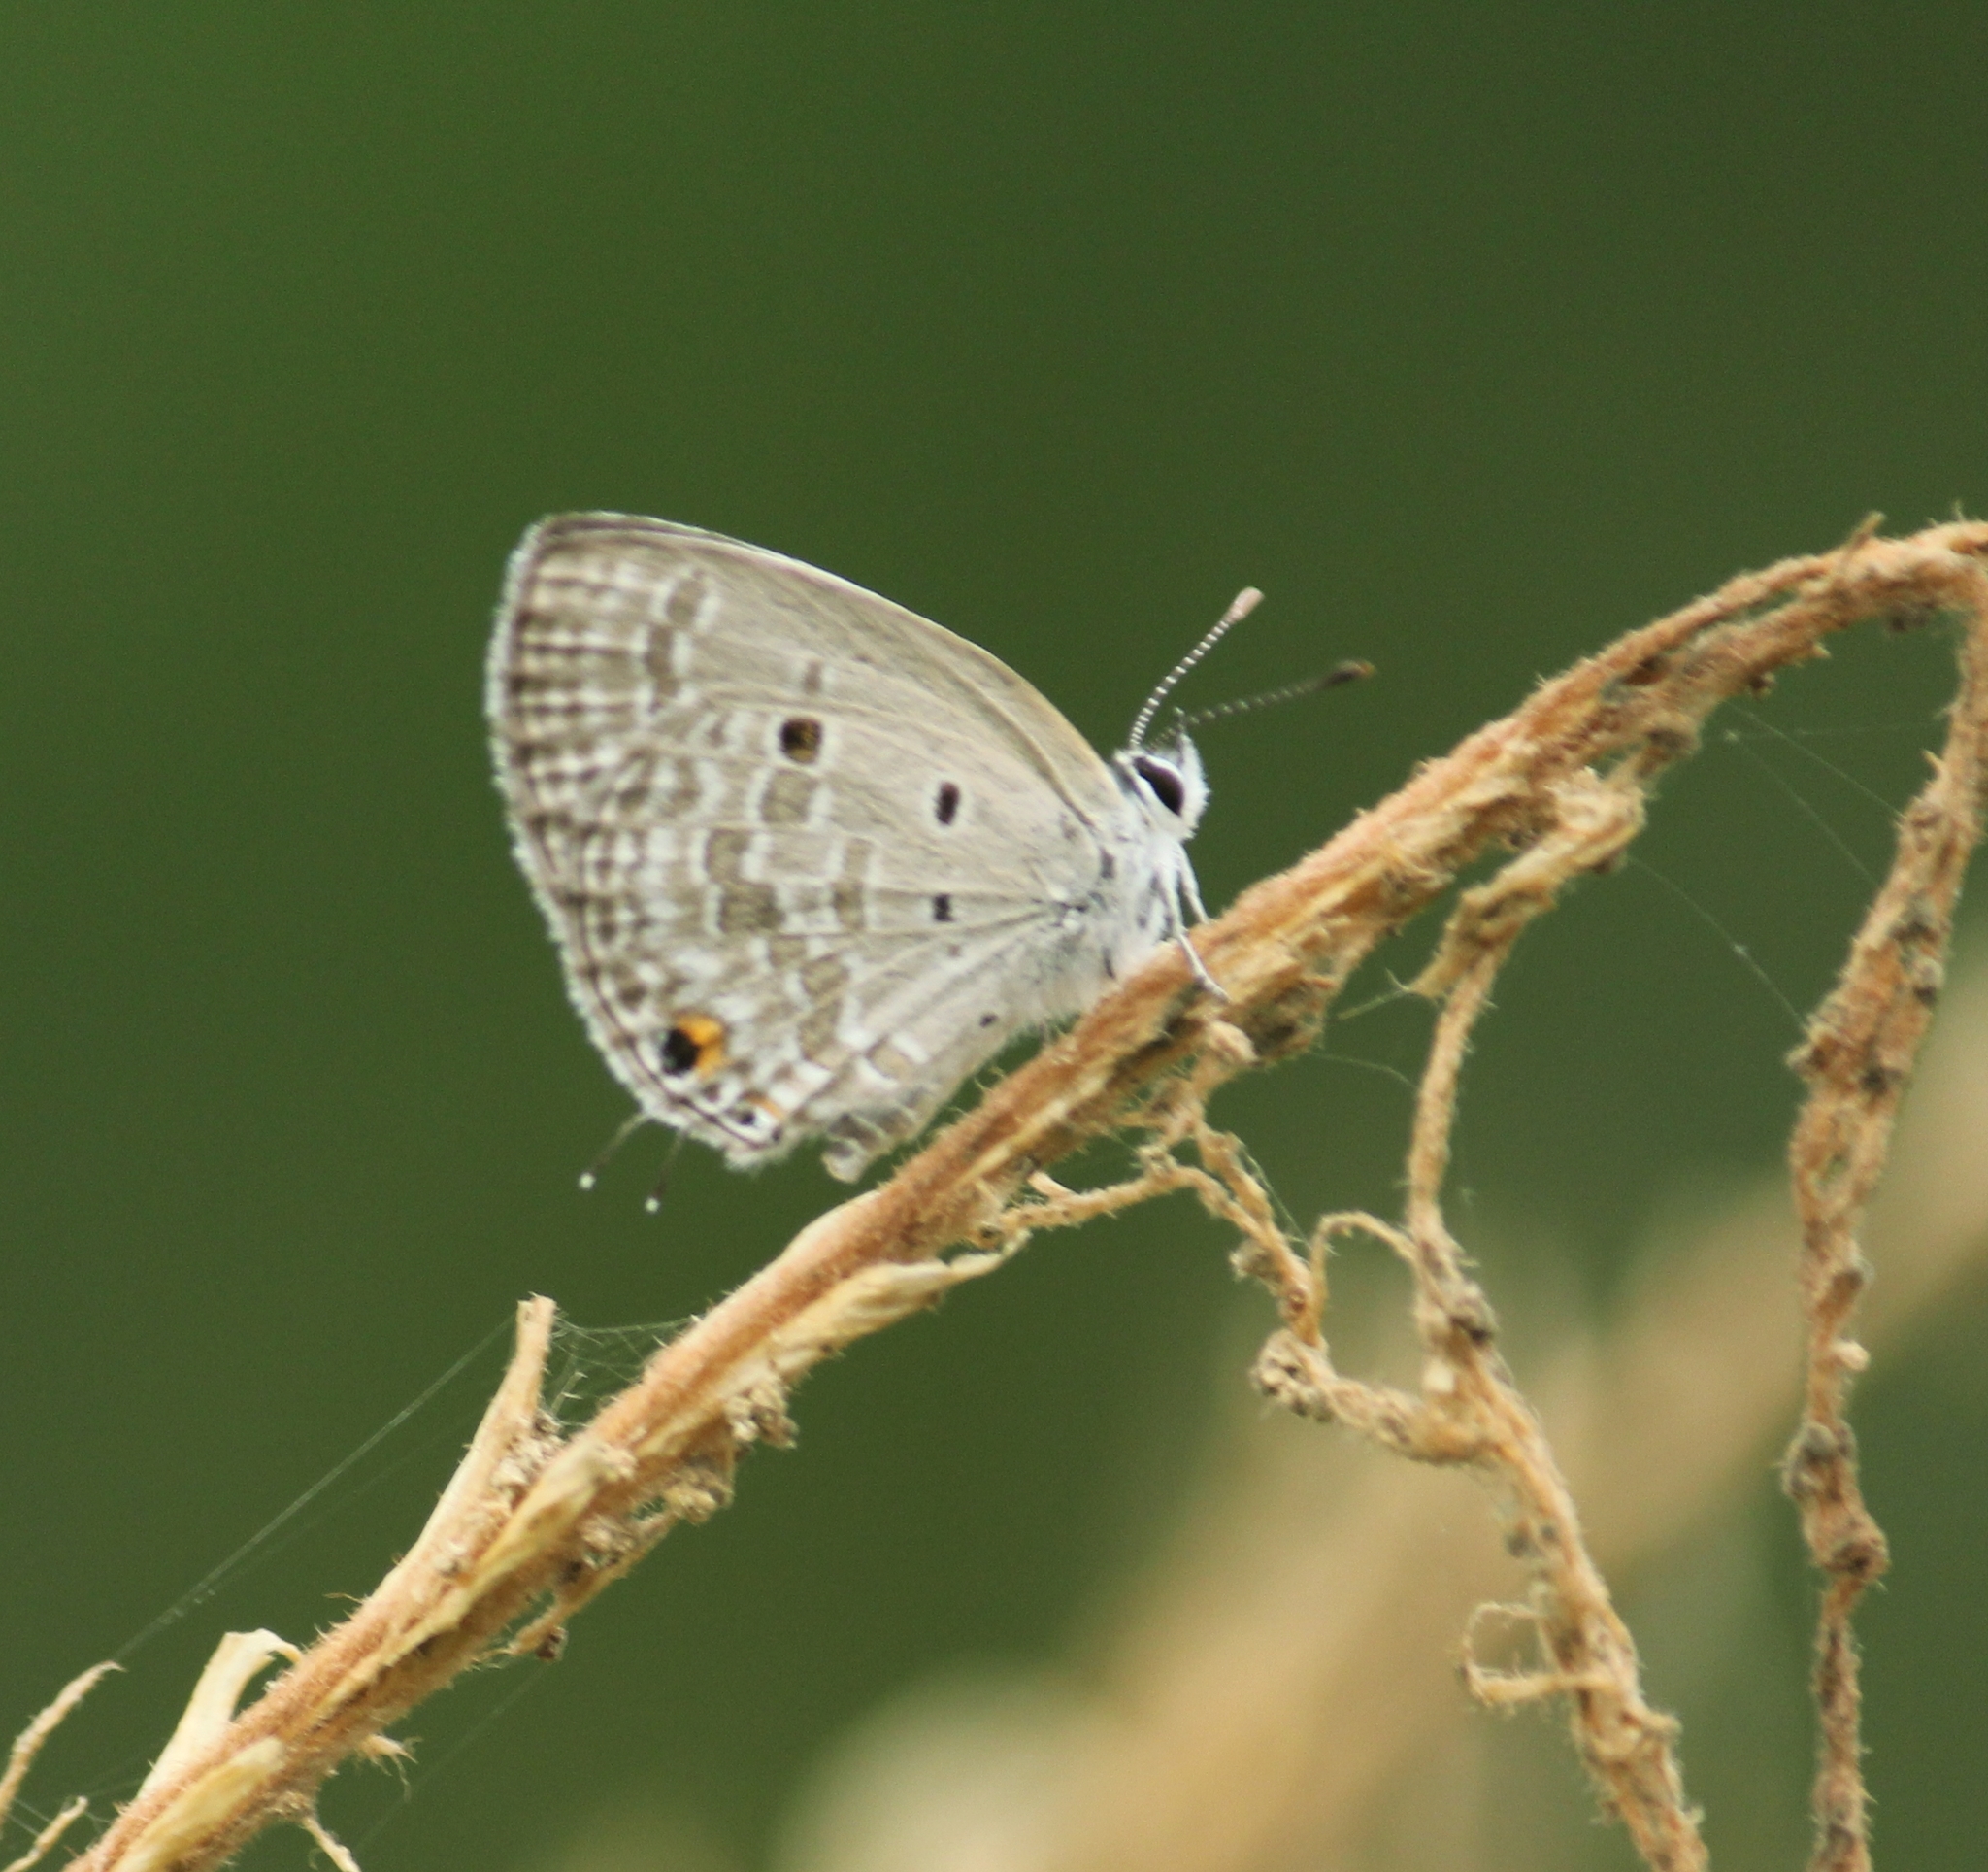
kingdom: Animalia
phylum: Arthropoda
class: Insecta
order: Lepidoptera
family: Lycaenidae
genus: Luthrodes
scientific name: Luthrodes pandava
